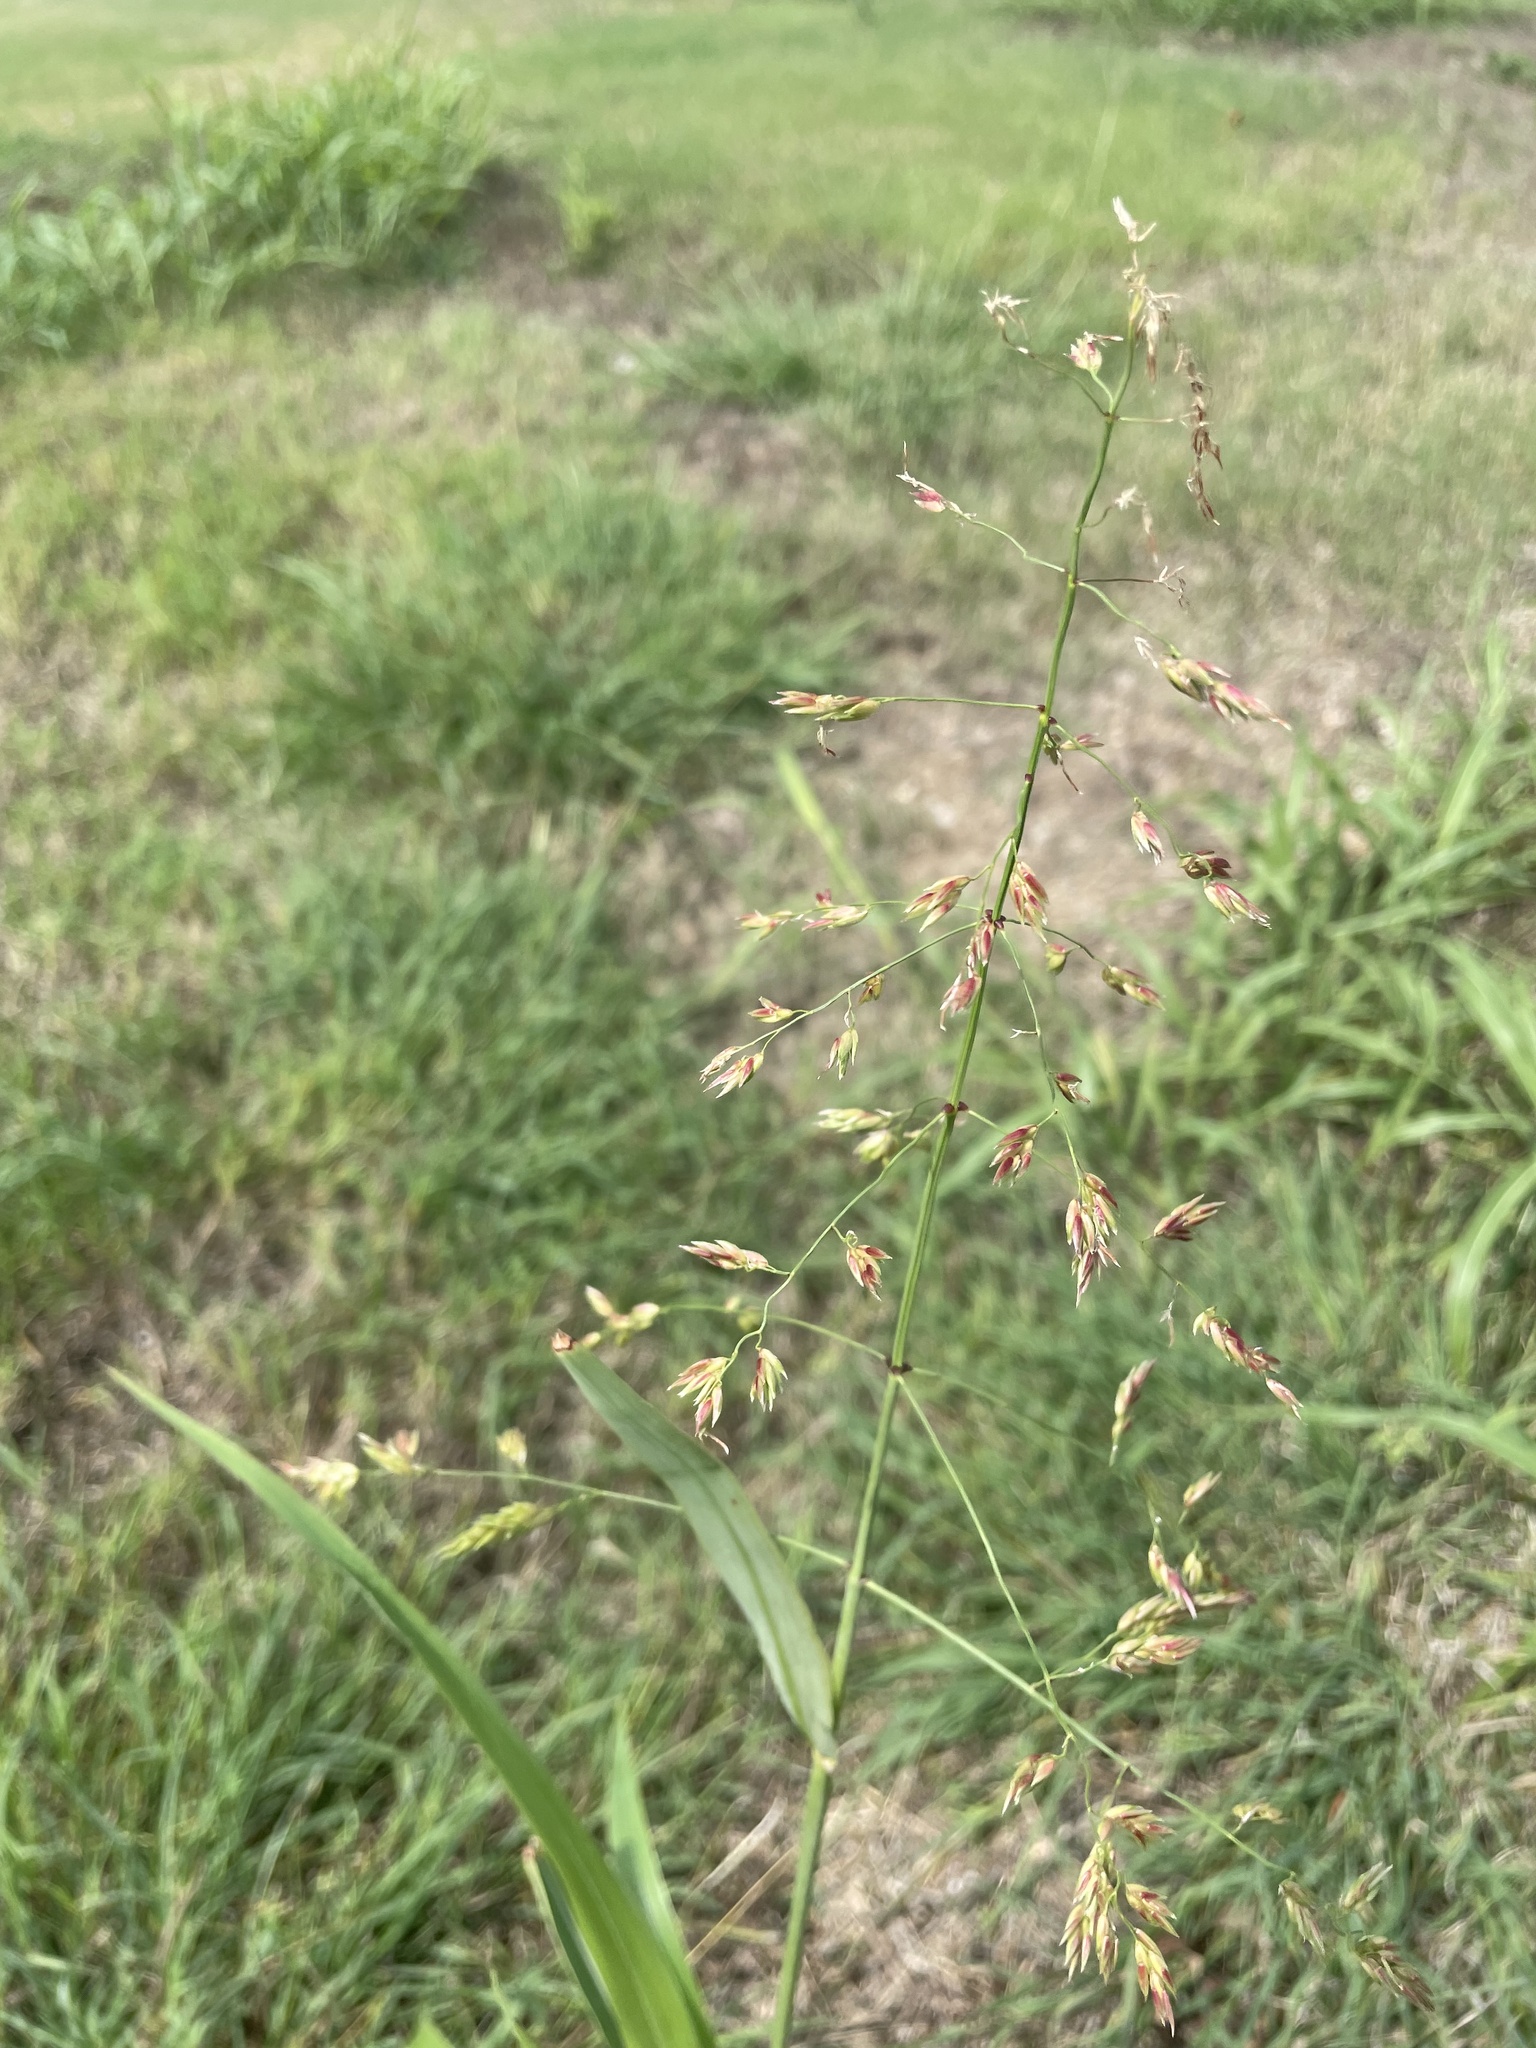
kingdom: Plantae
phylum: Tracheophyta
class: Liliopsida
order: Poales
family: Poaceae
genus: Sorghum
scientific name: Sorghum halepense
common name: Johnson-grass
